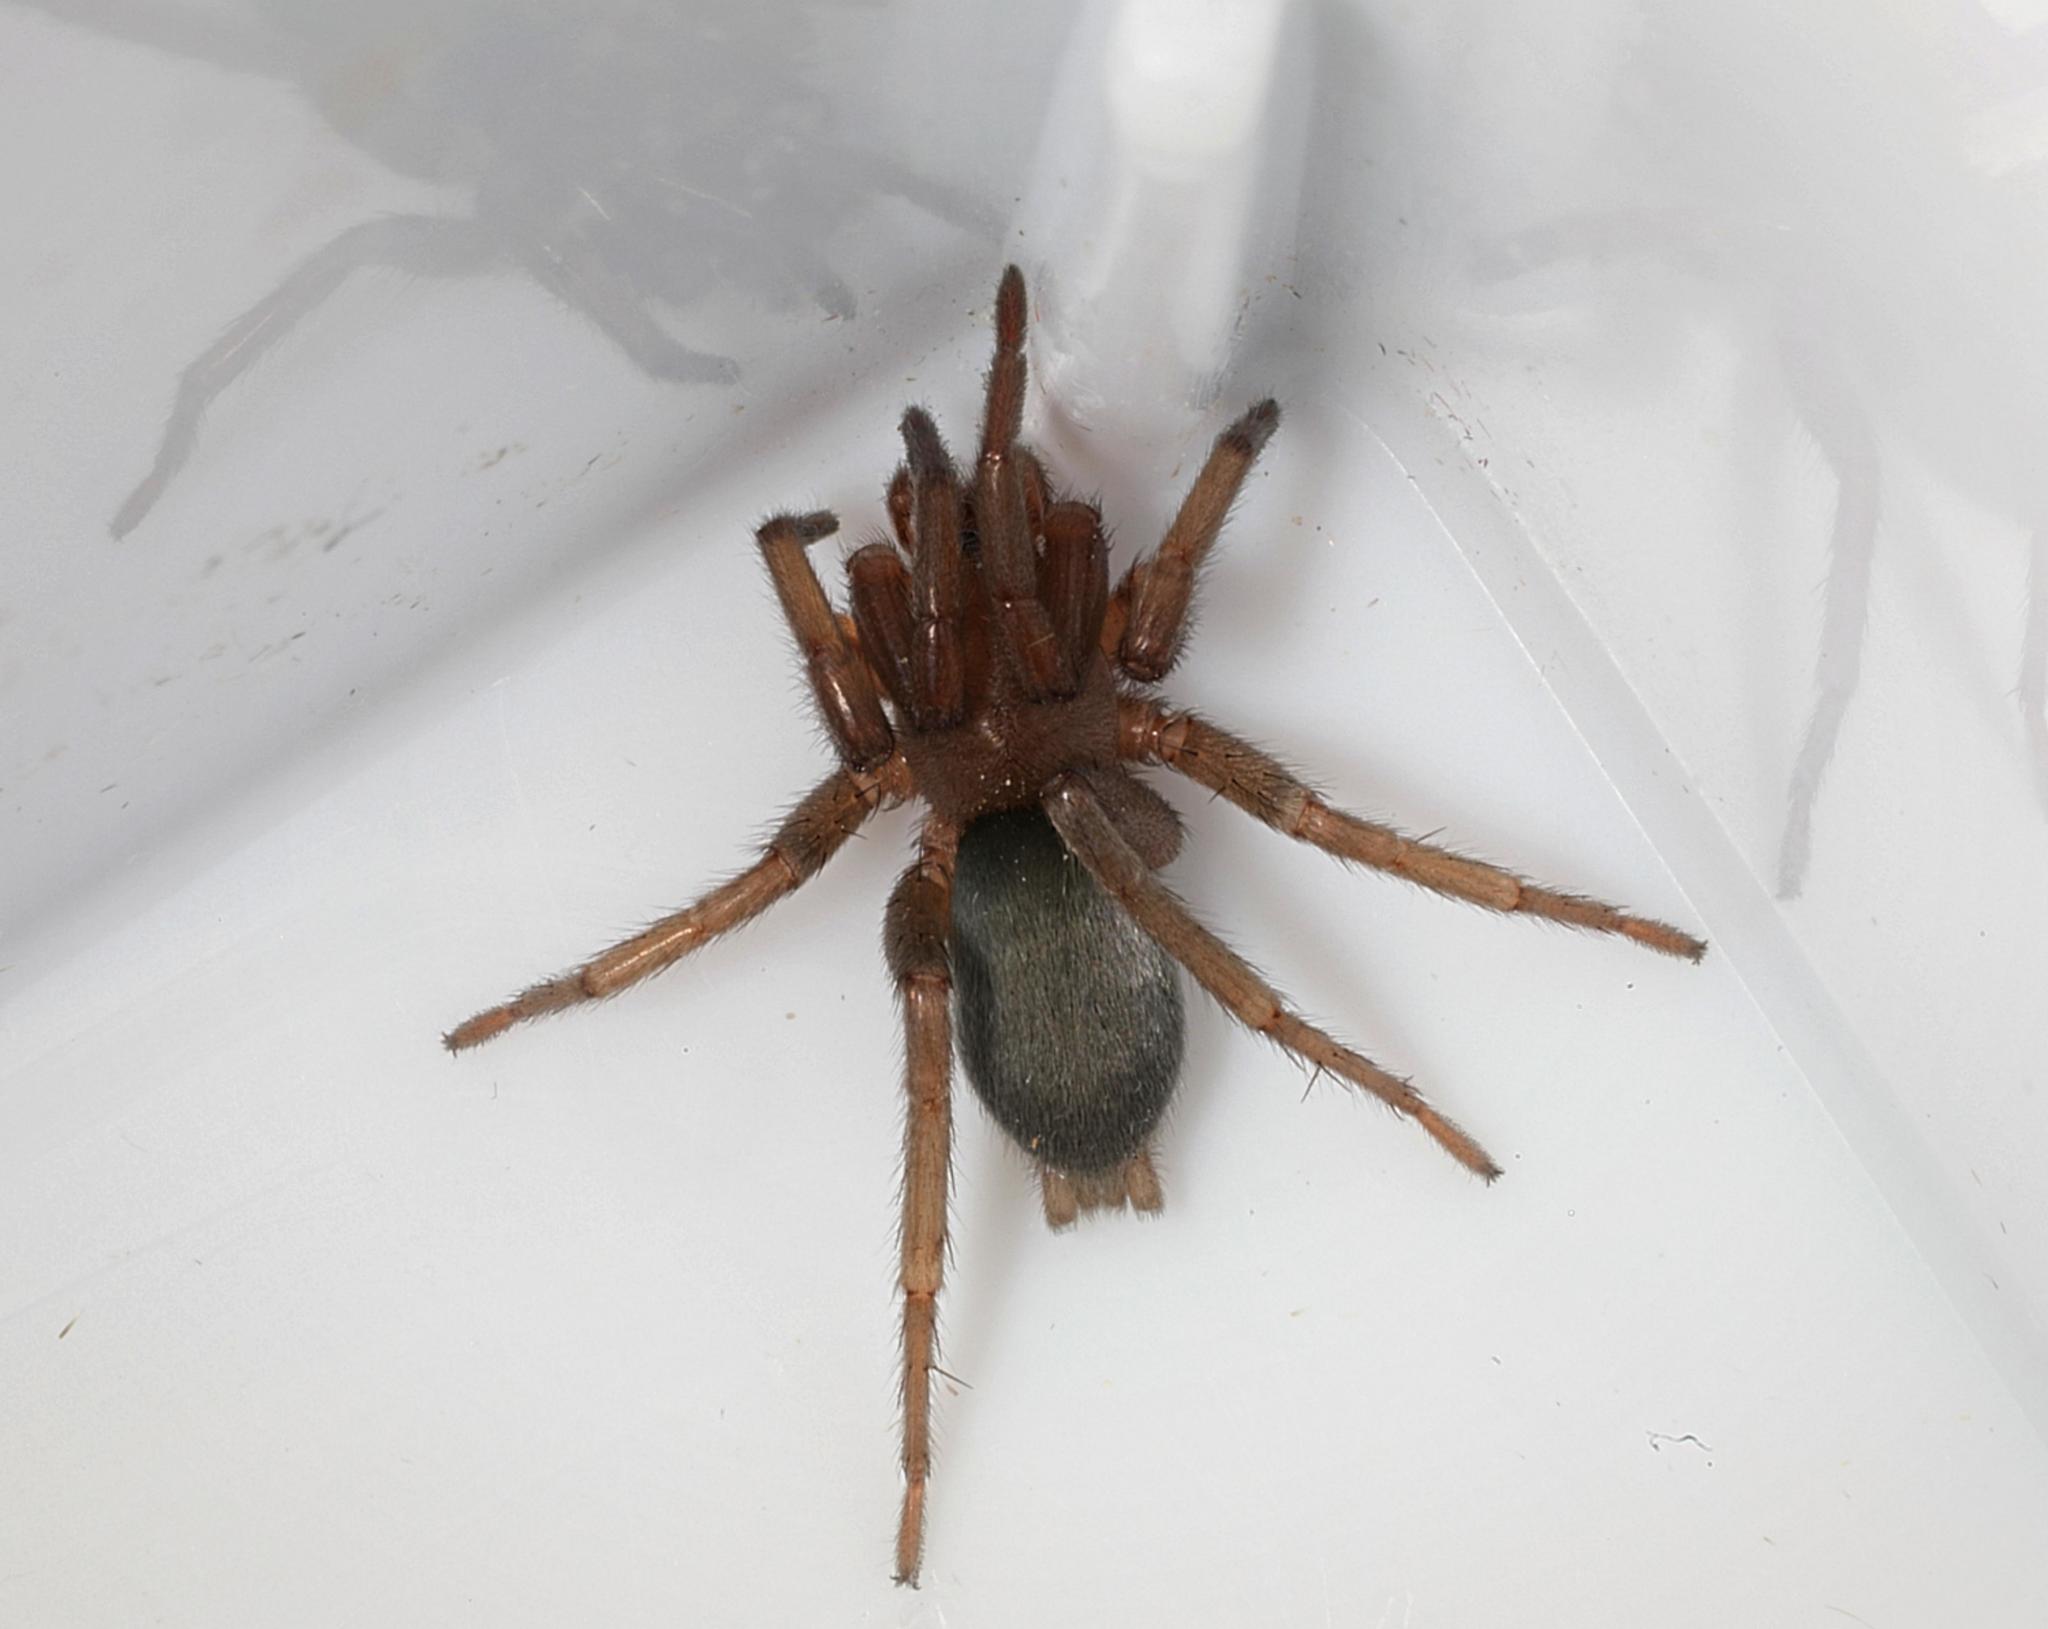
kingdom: Animalia
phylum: Arthropoda
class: Arachnida
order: Araneae
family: Gnaphosidae
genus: Scotophaeus
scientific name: Scotophaeus blackwalli
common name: Mouse spider
